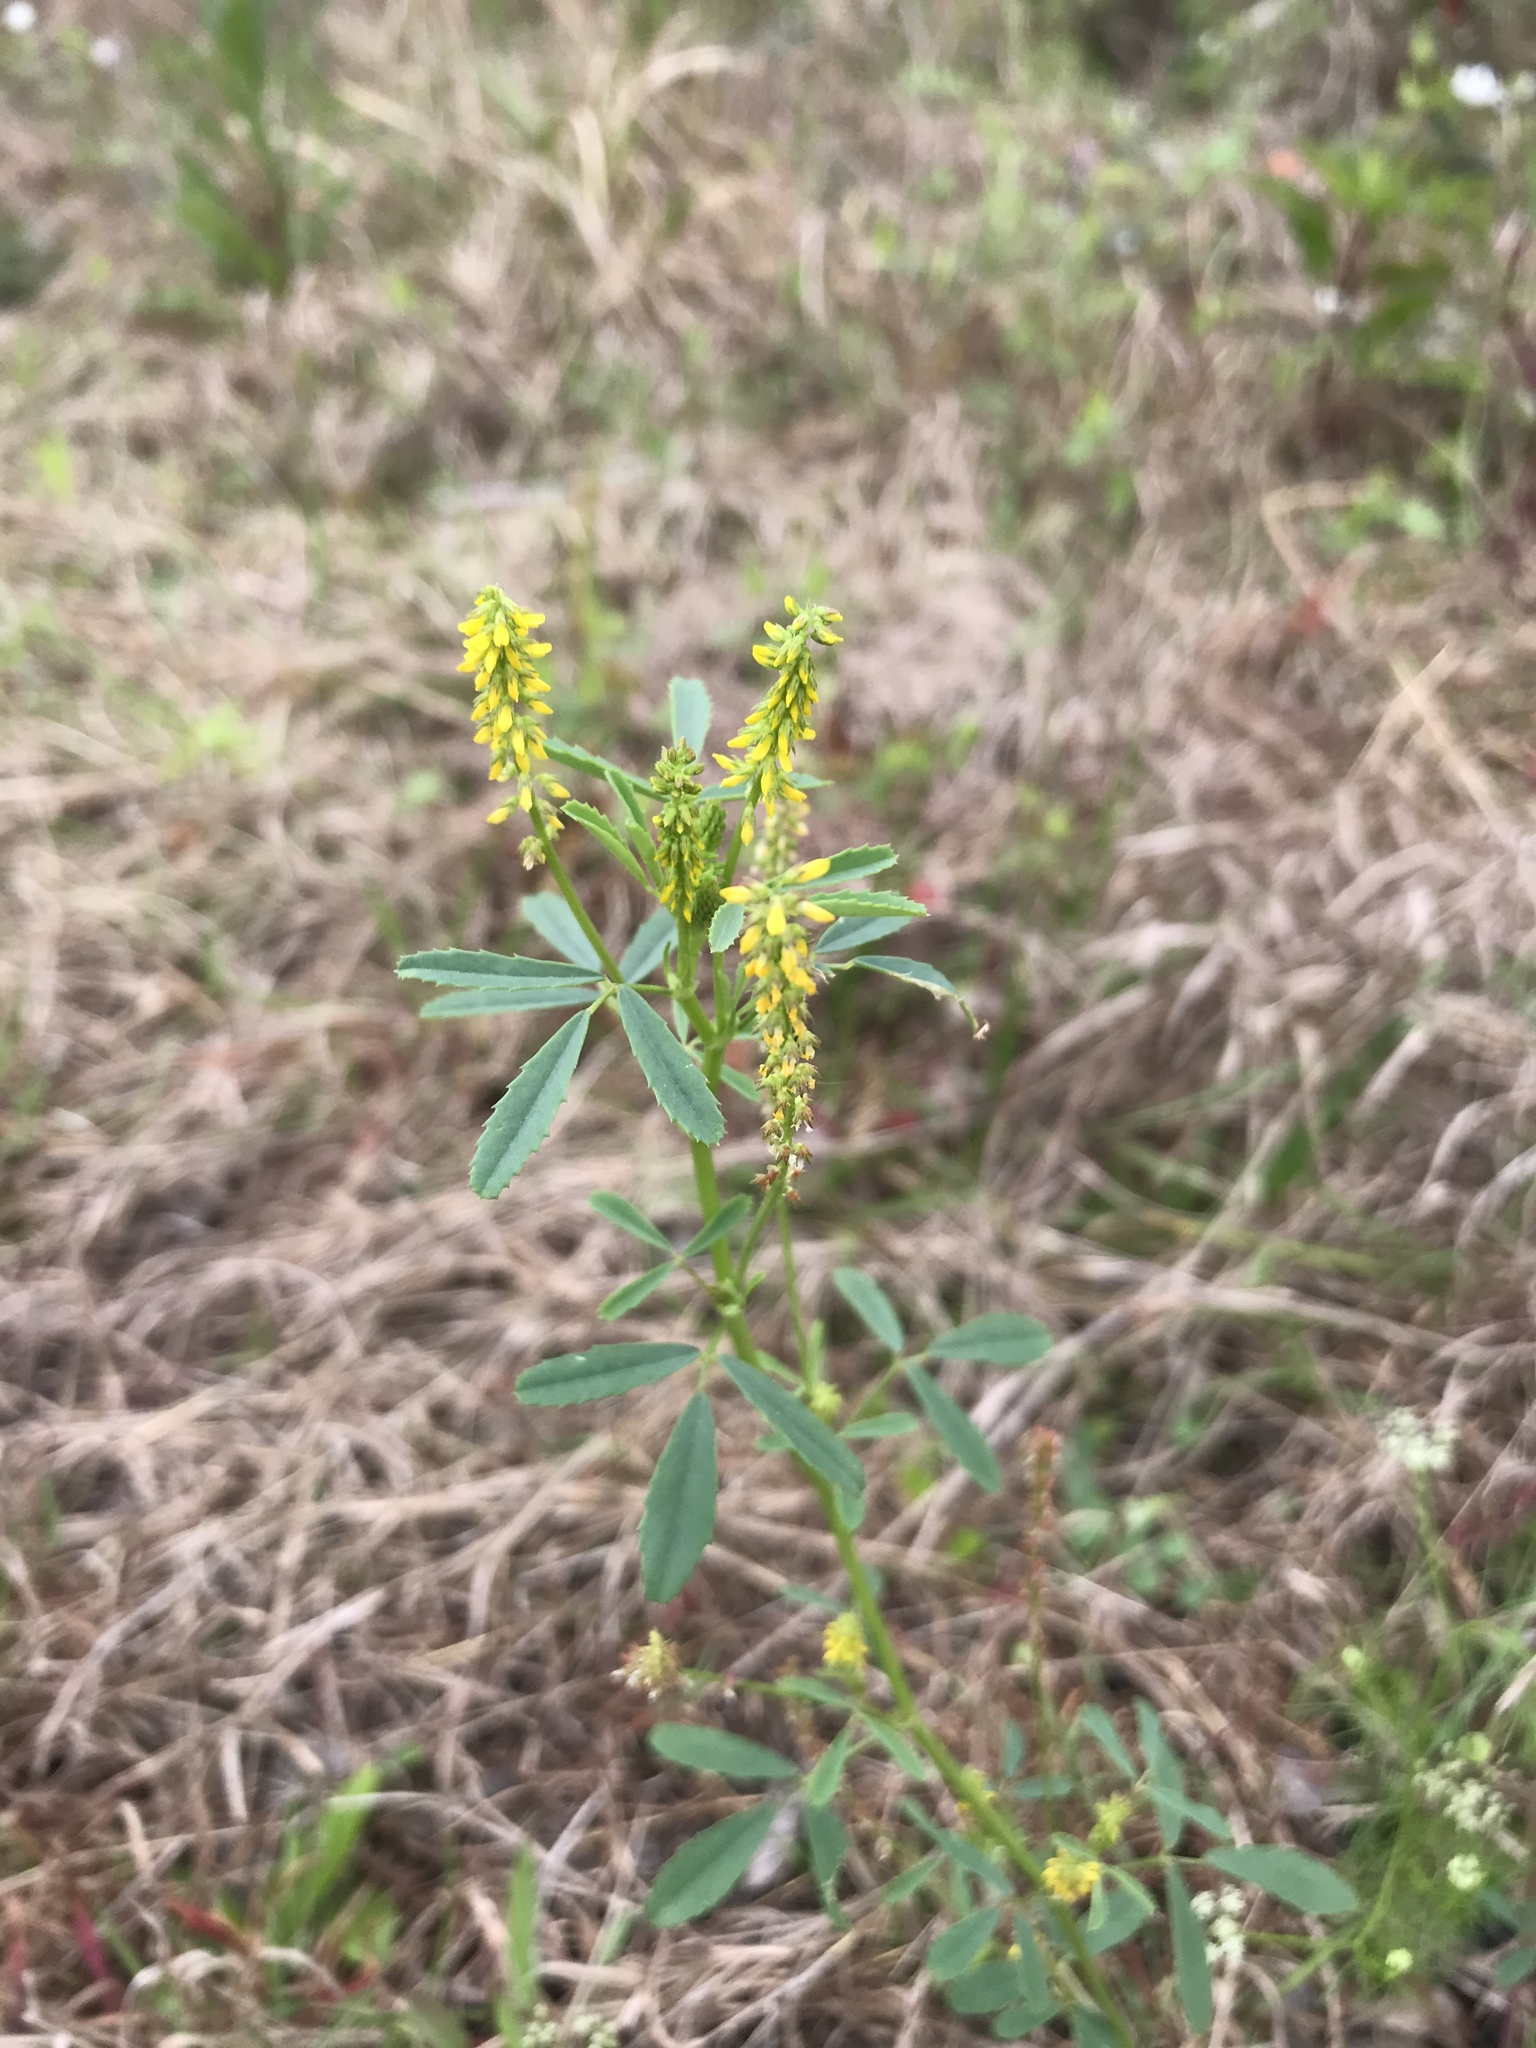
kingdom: Plantae
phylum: Tracheophyta
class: Magnoliopsida
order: Fabales
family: Fabaceae
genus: Melilotus
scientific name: Melilotus indicus
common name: Small melilot
